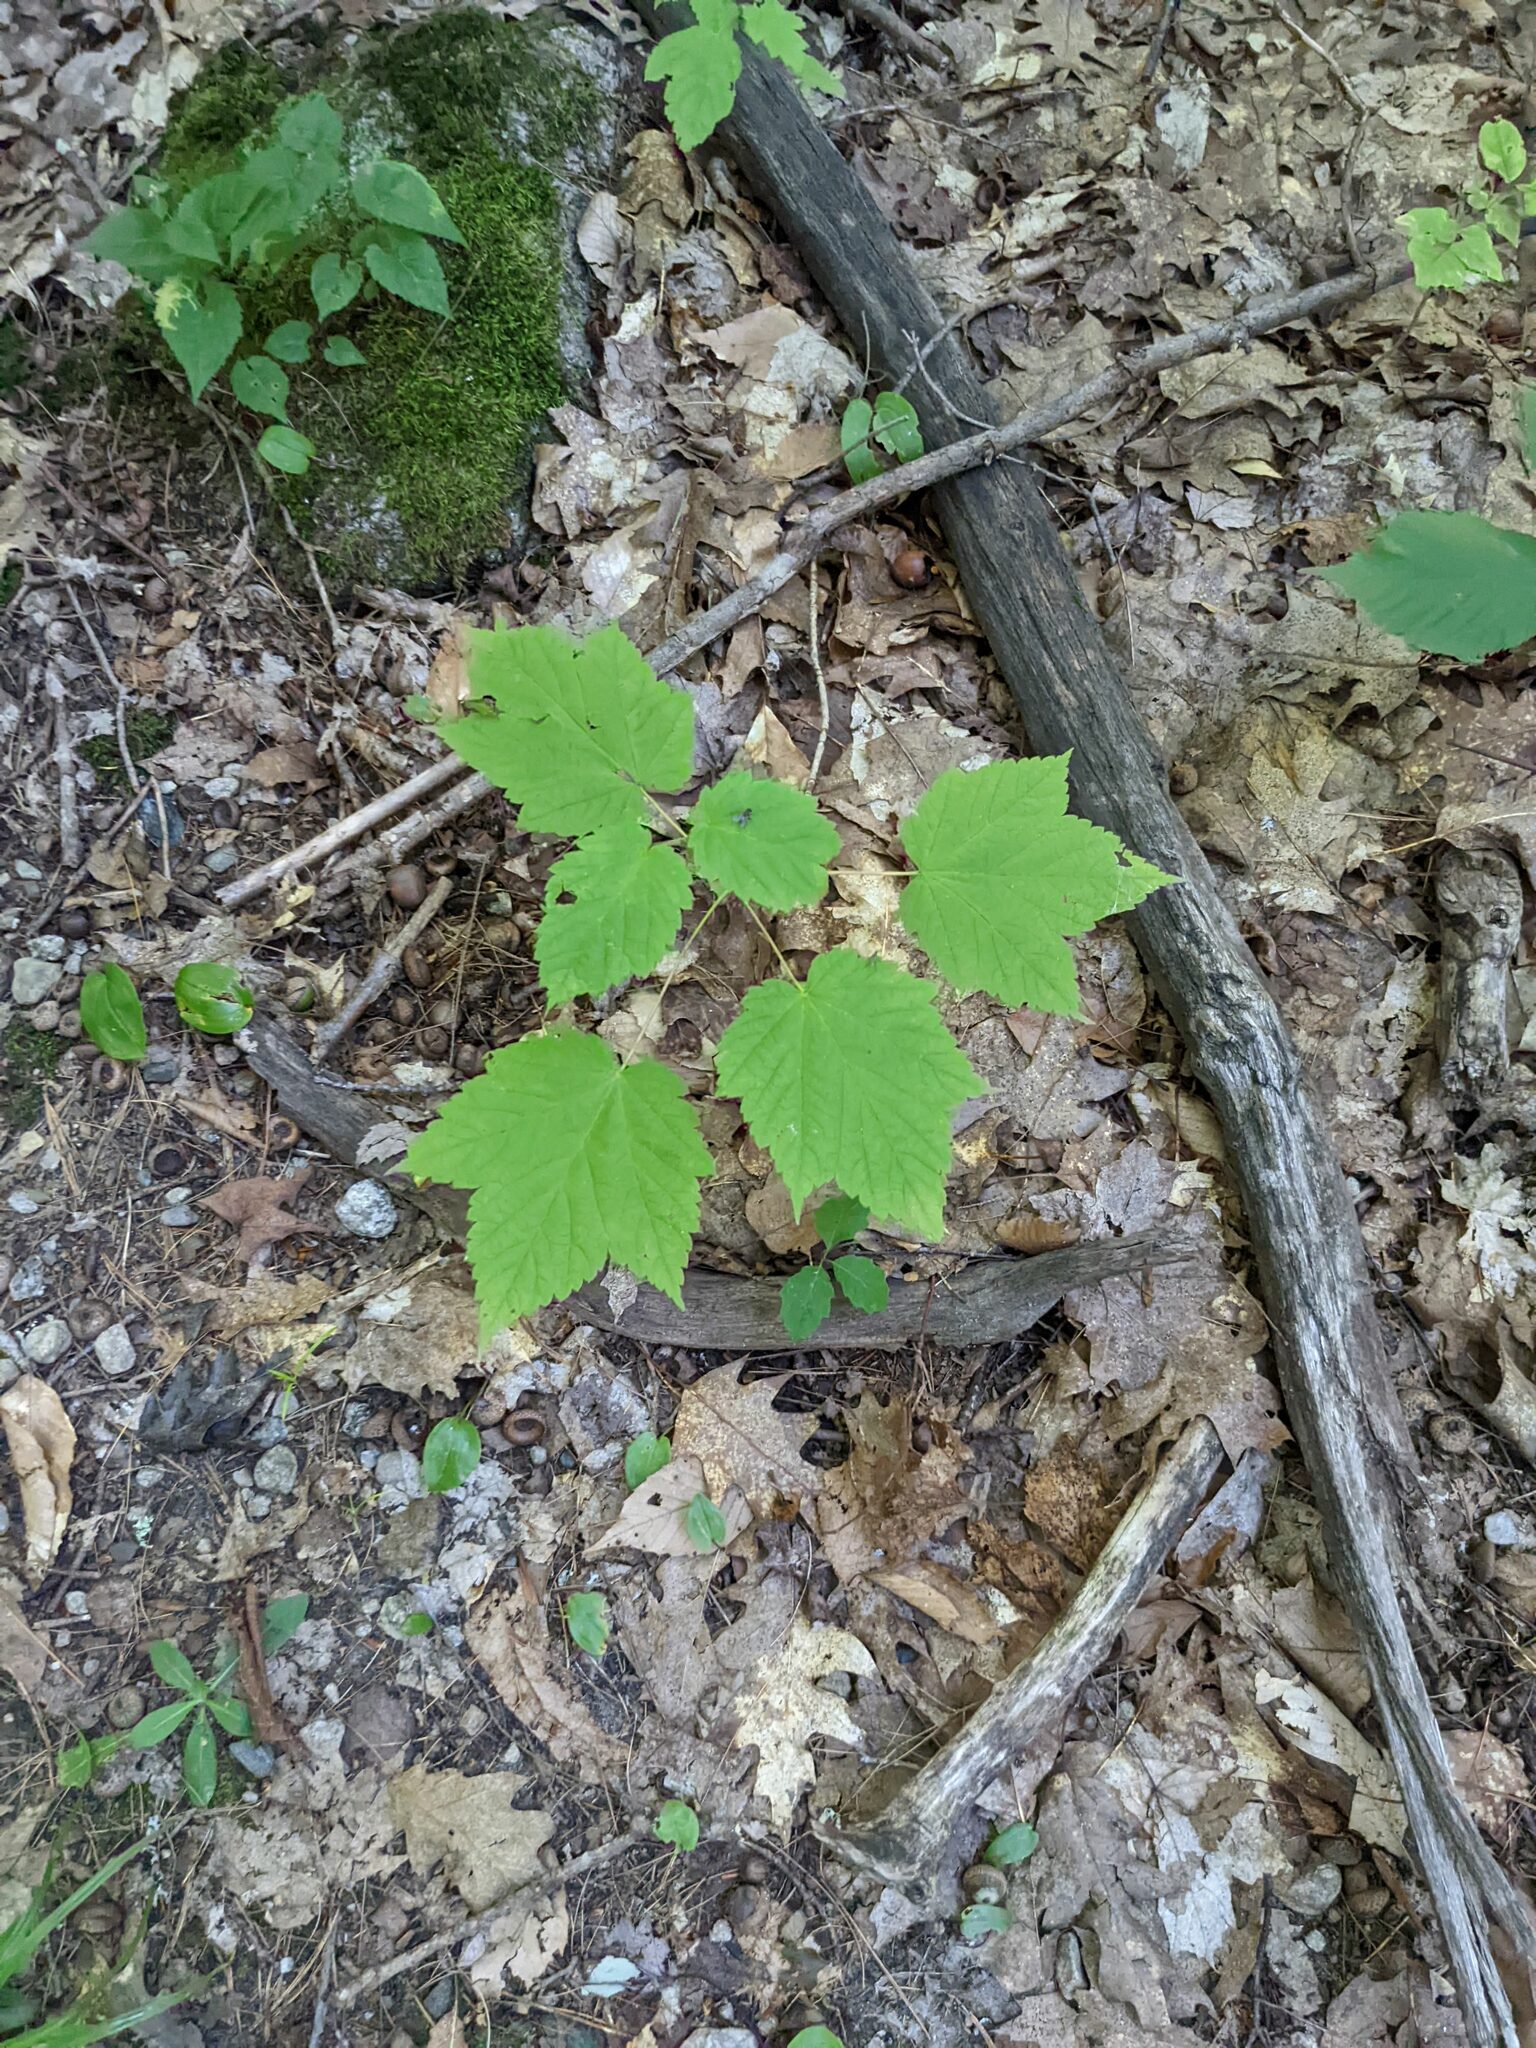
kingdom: Plantae
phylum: Tracheophyta
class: Magnoliopsida
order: Sapindales
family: Sapindaceae
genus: Acer
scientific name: Acer spicatum
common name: Mountain maple
